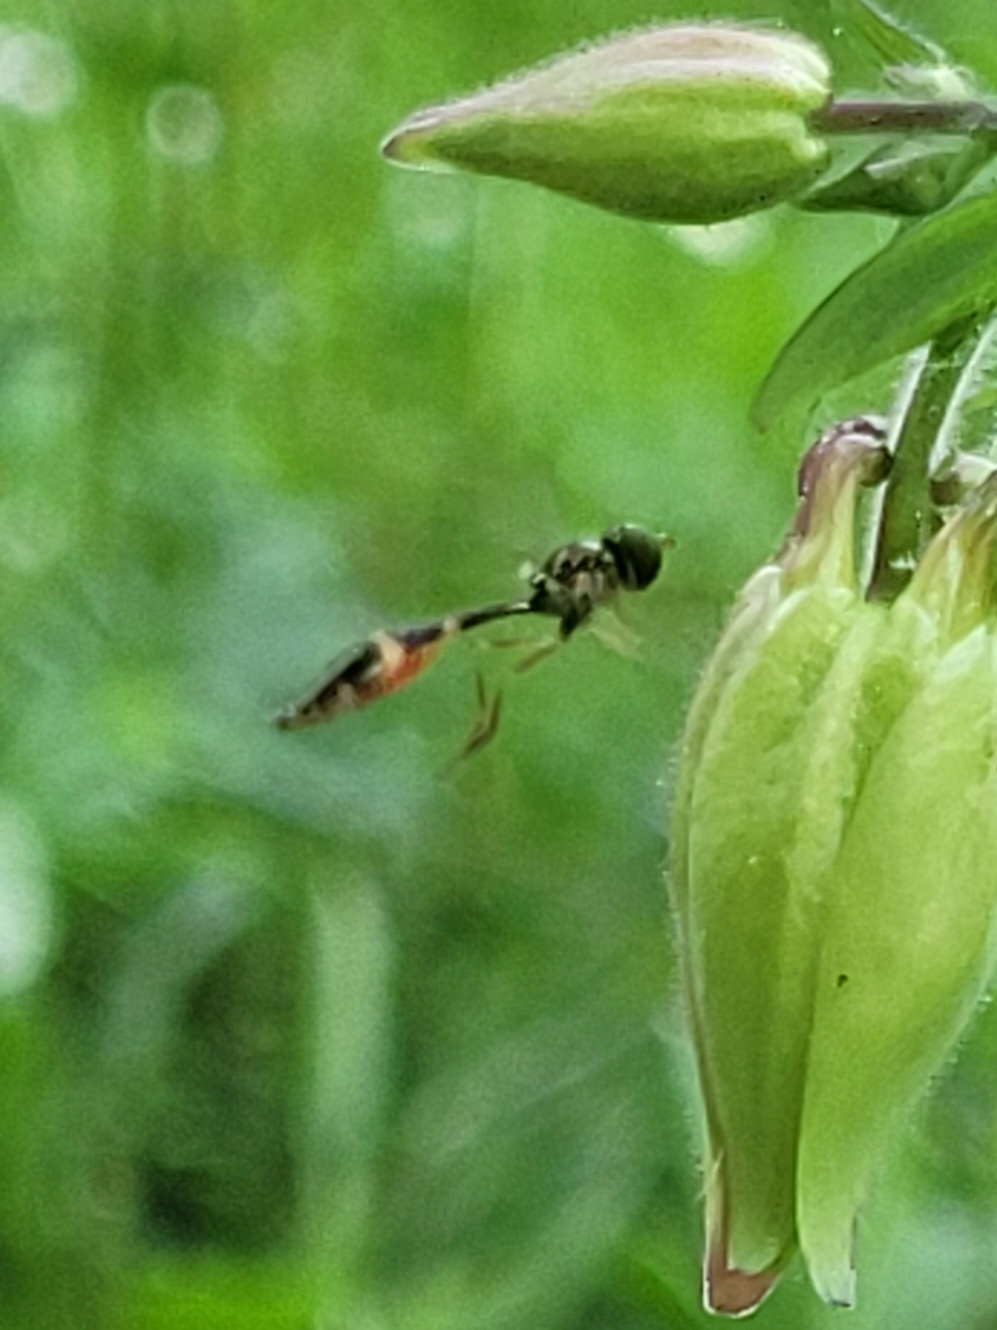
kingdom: Animalia
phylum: Arthropoda
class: Insecta
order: Diptera
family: Syrphidae
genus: Baccha
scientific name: Baccha elongata
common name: Common dainty
